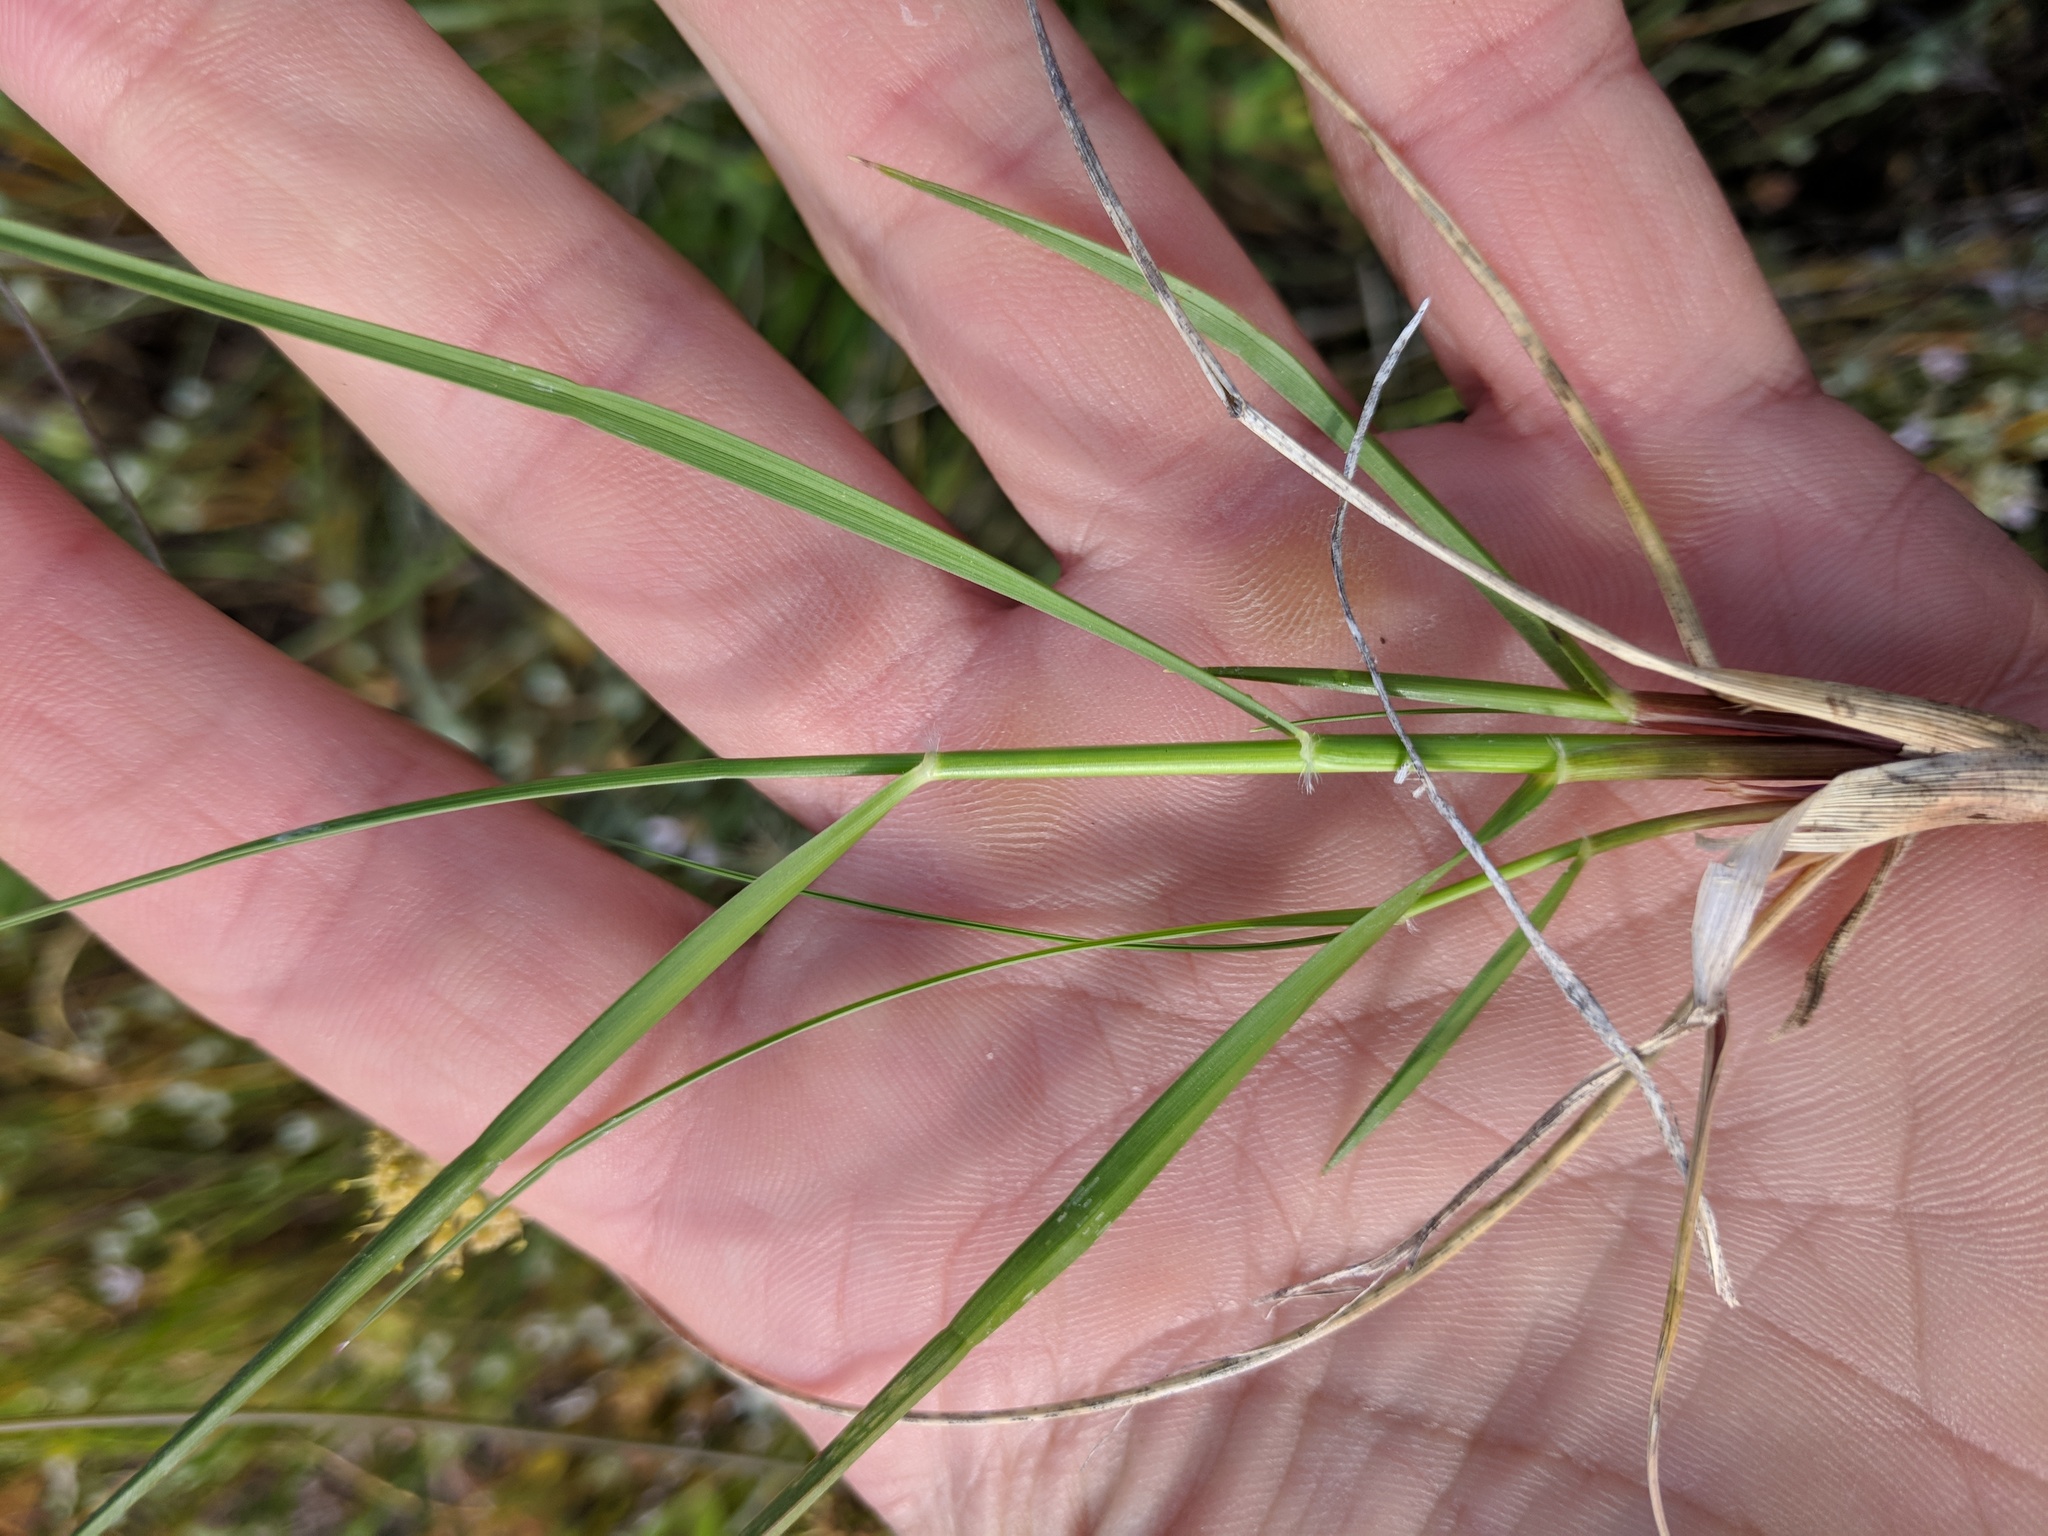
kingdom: Plantae
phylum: Tracheophyta
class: Liliopsida
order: Poales
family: Poaceae
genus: Danthonia
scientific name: Danthonia californica
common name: California oat grass
